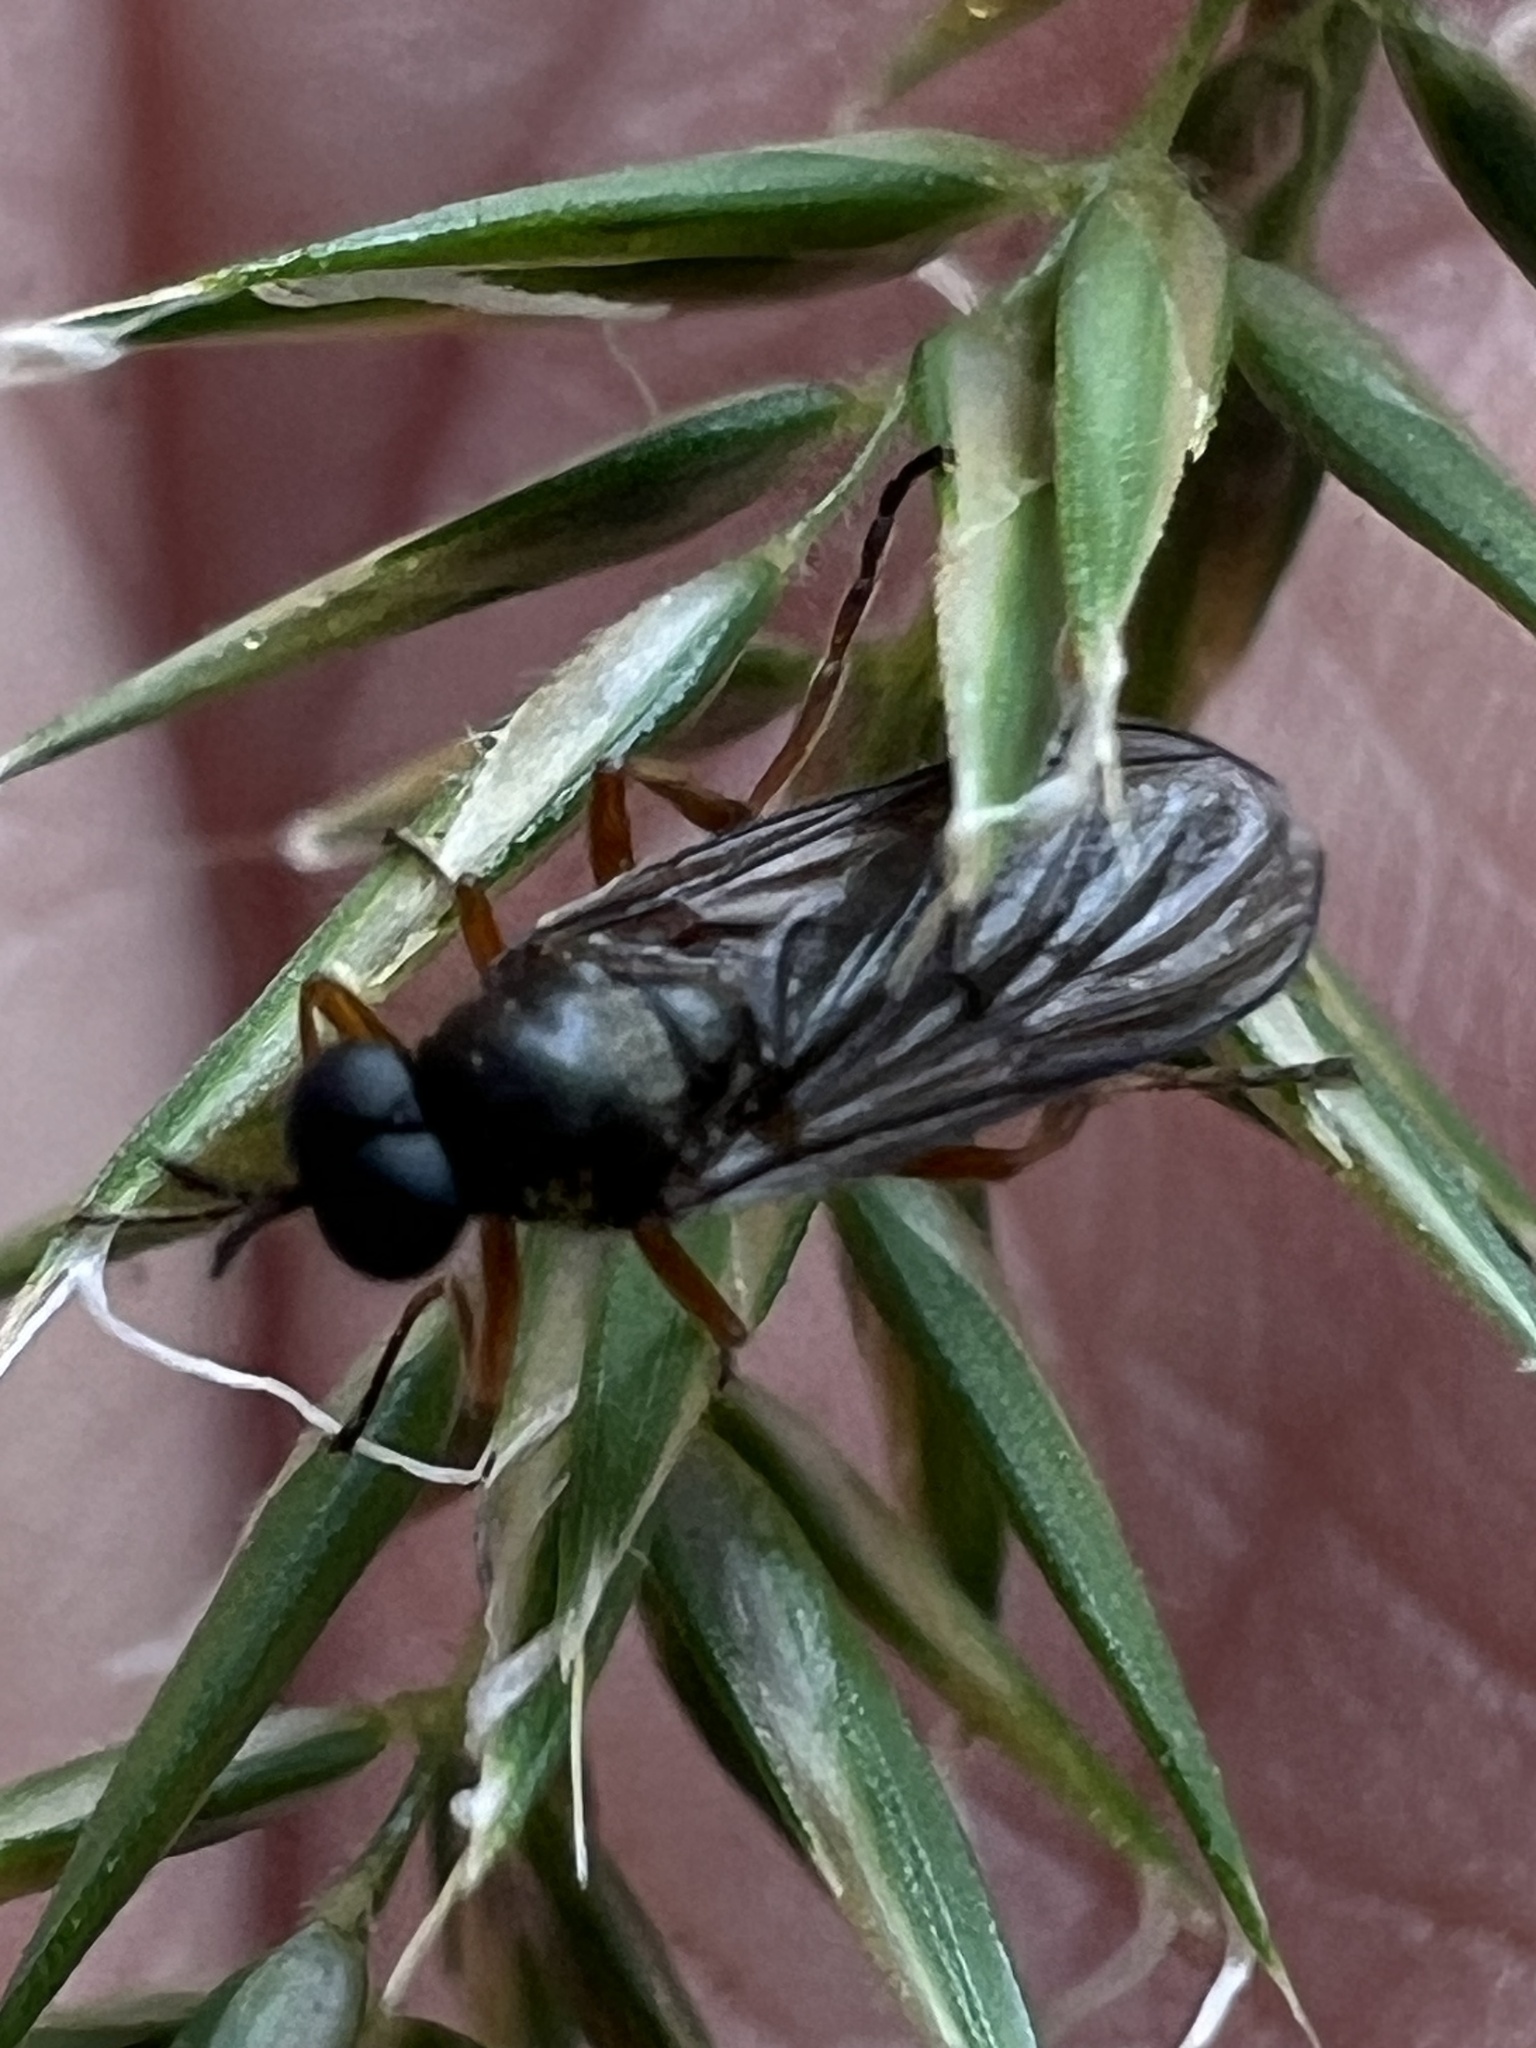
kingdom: Animalia
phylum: Arthropoda
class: Insecta
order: Diptera
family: Stratiomyidae
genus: Inopus
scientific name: Inopus rubriceps
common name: Soldier fly
